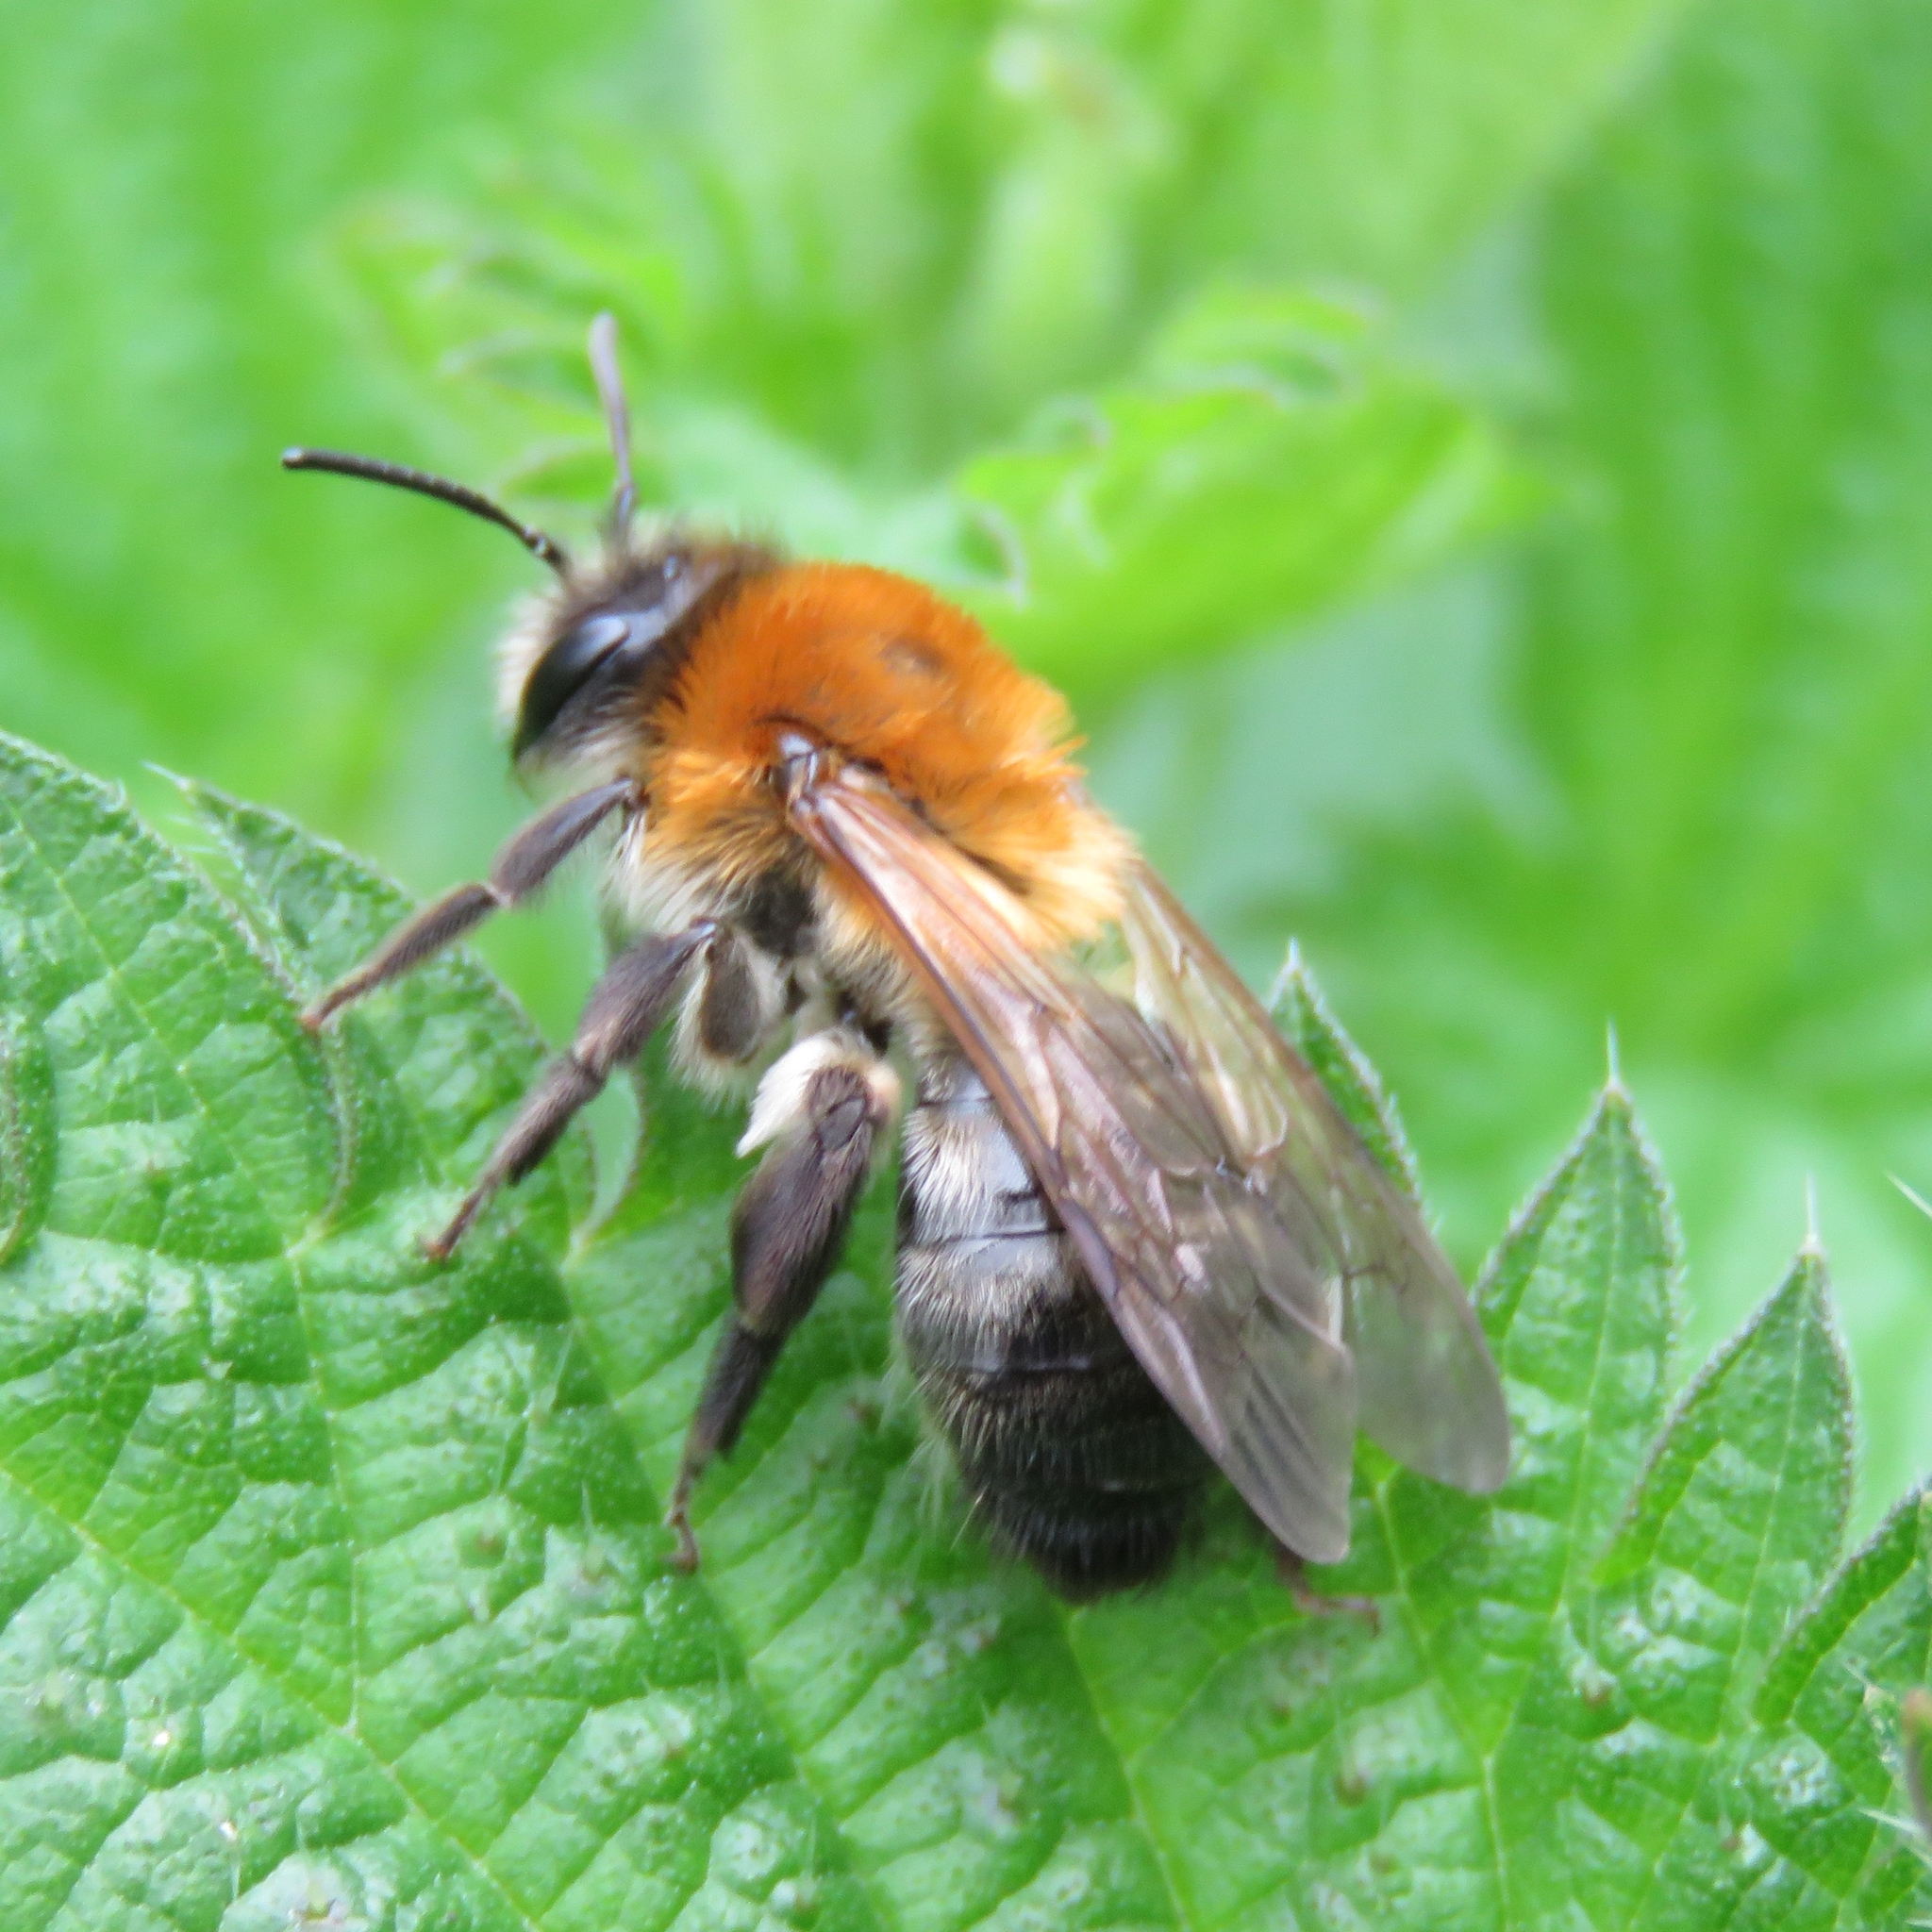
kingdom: Animalia
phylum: Arthropoda
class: Insecta
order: Hymenoptera
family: Andrenidae
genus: Andrena
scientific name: Andrena nitida
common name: Grey-patched mining bee
